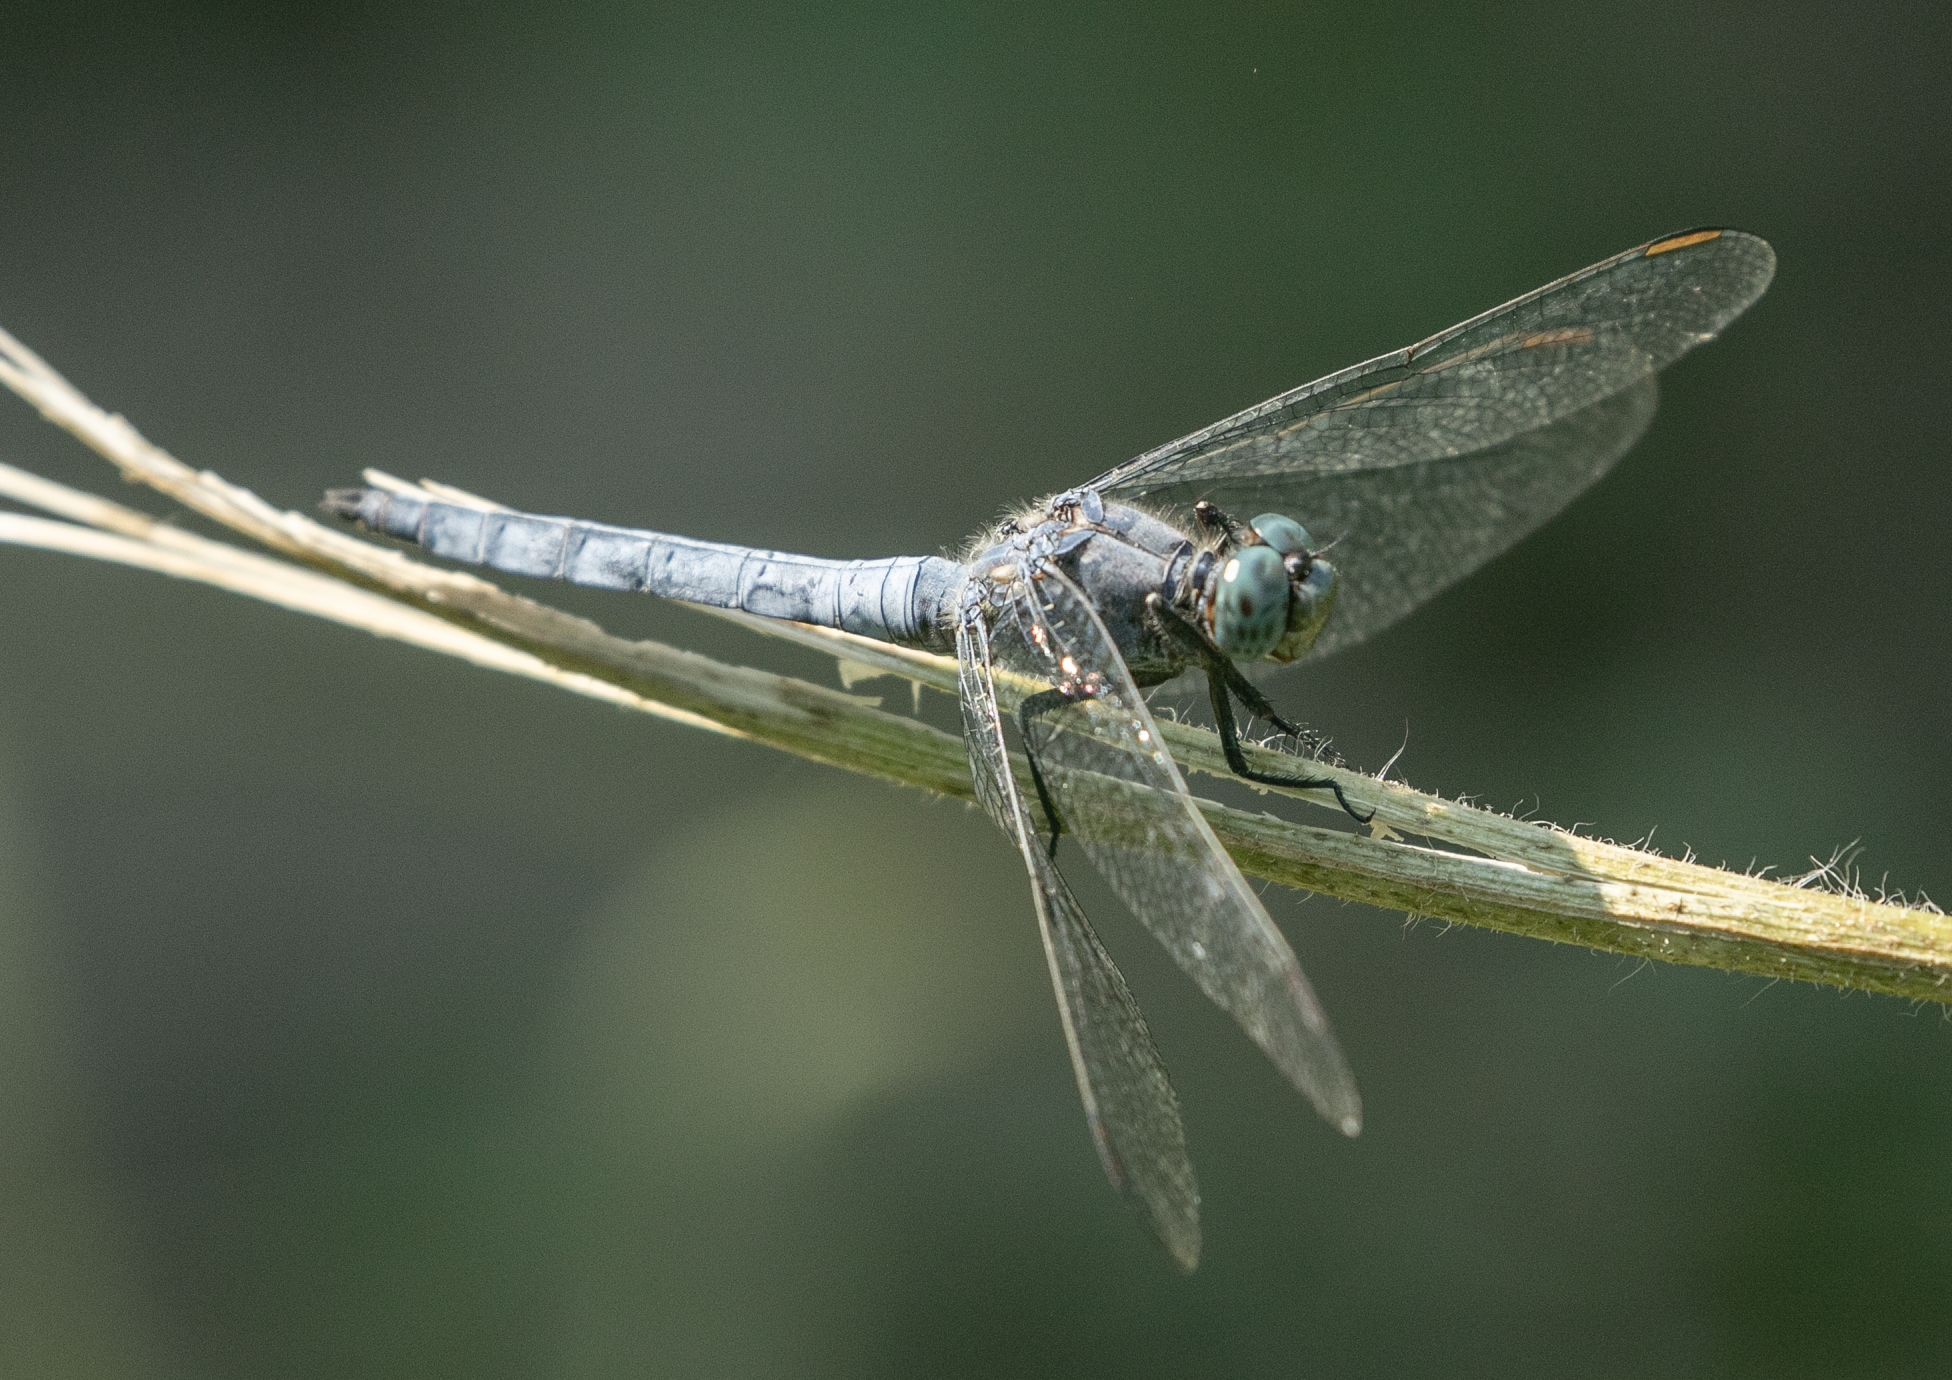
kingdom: Animalia
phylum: Arthropoda
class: Insecta
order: Odonata
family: Libellulidae
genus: Orthetrum
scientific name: Orthetrum coerulescens
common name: Keeled skimmer
